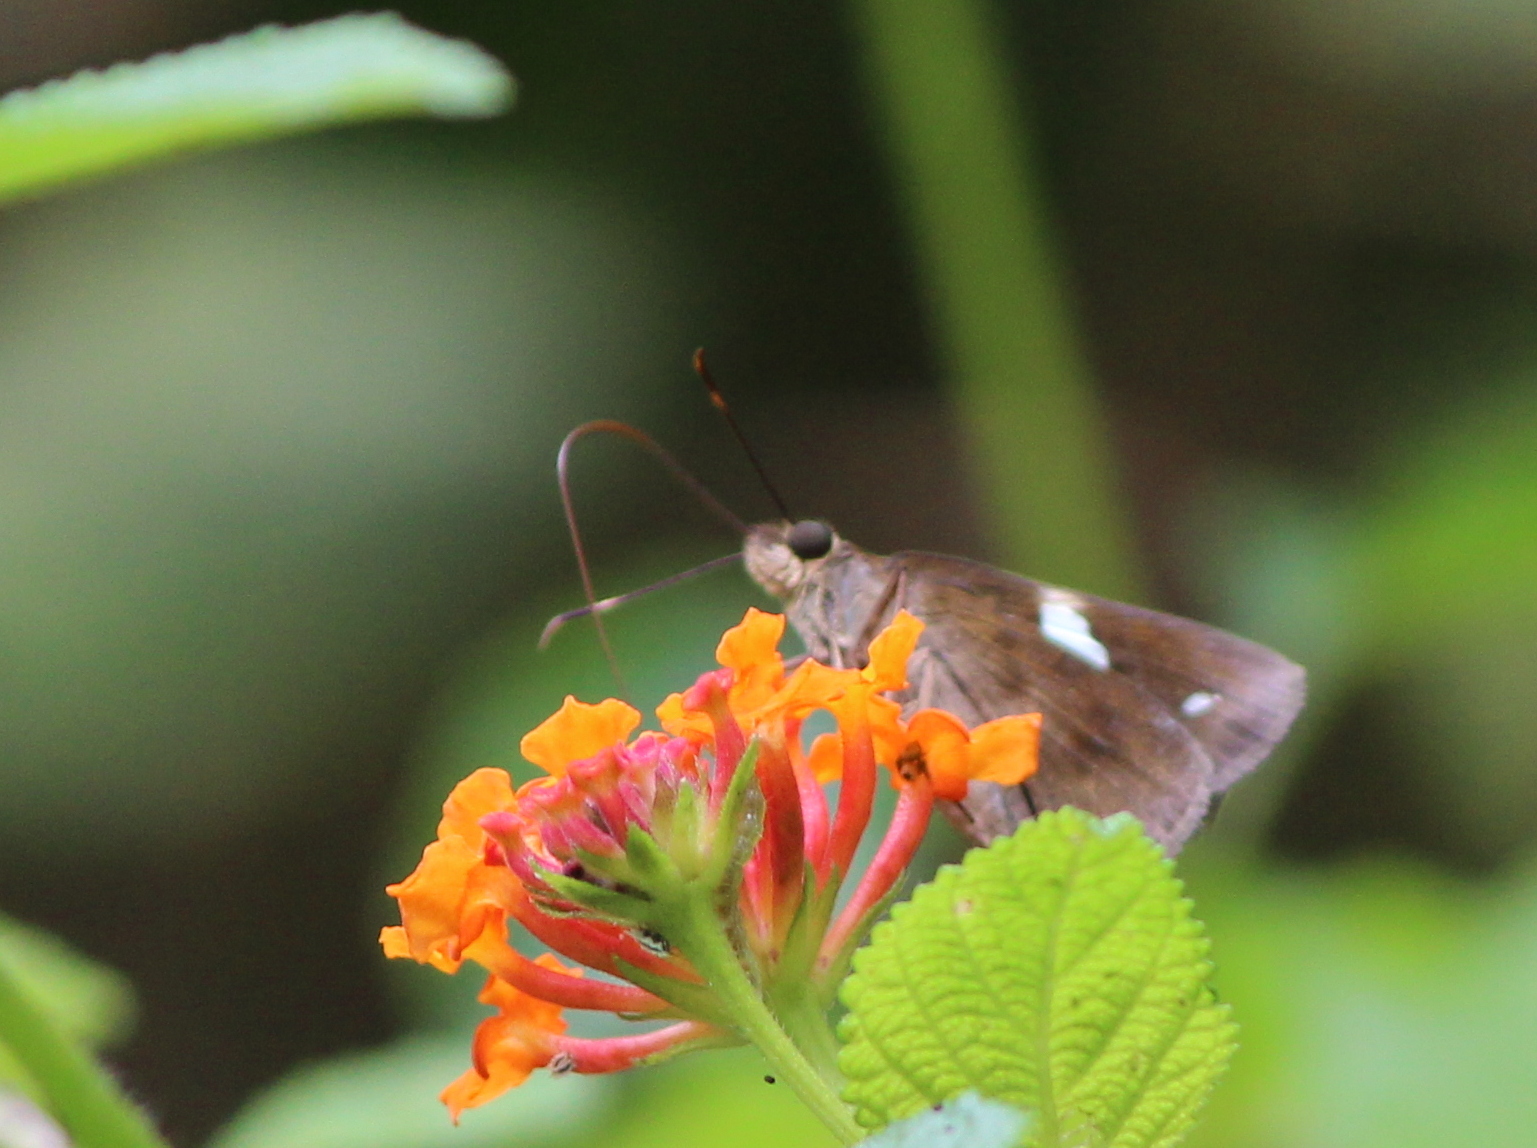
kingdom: Animalia
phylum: Arthropoda
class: Insecta
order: Lepidoptera
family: Hesperiidae
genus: Notocrypta
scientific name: Notocrypta paralysos
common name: Common banded demon
